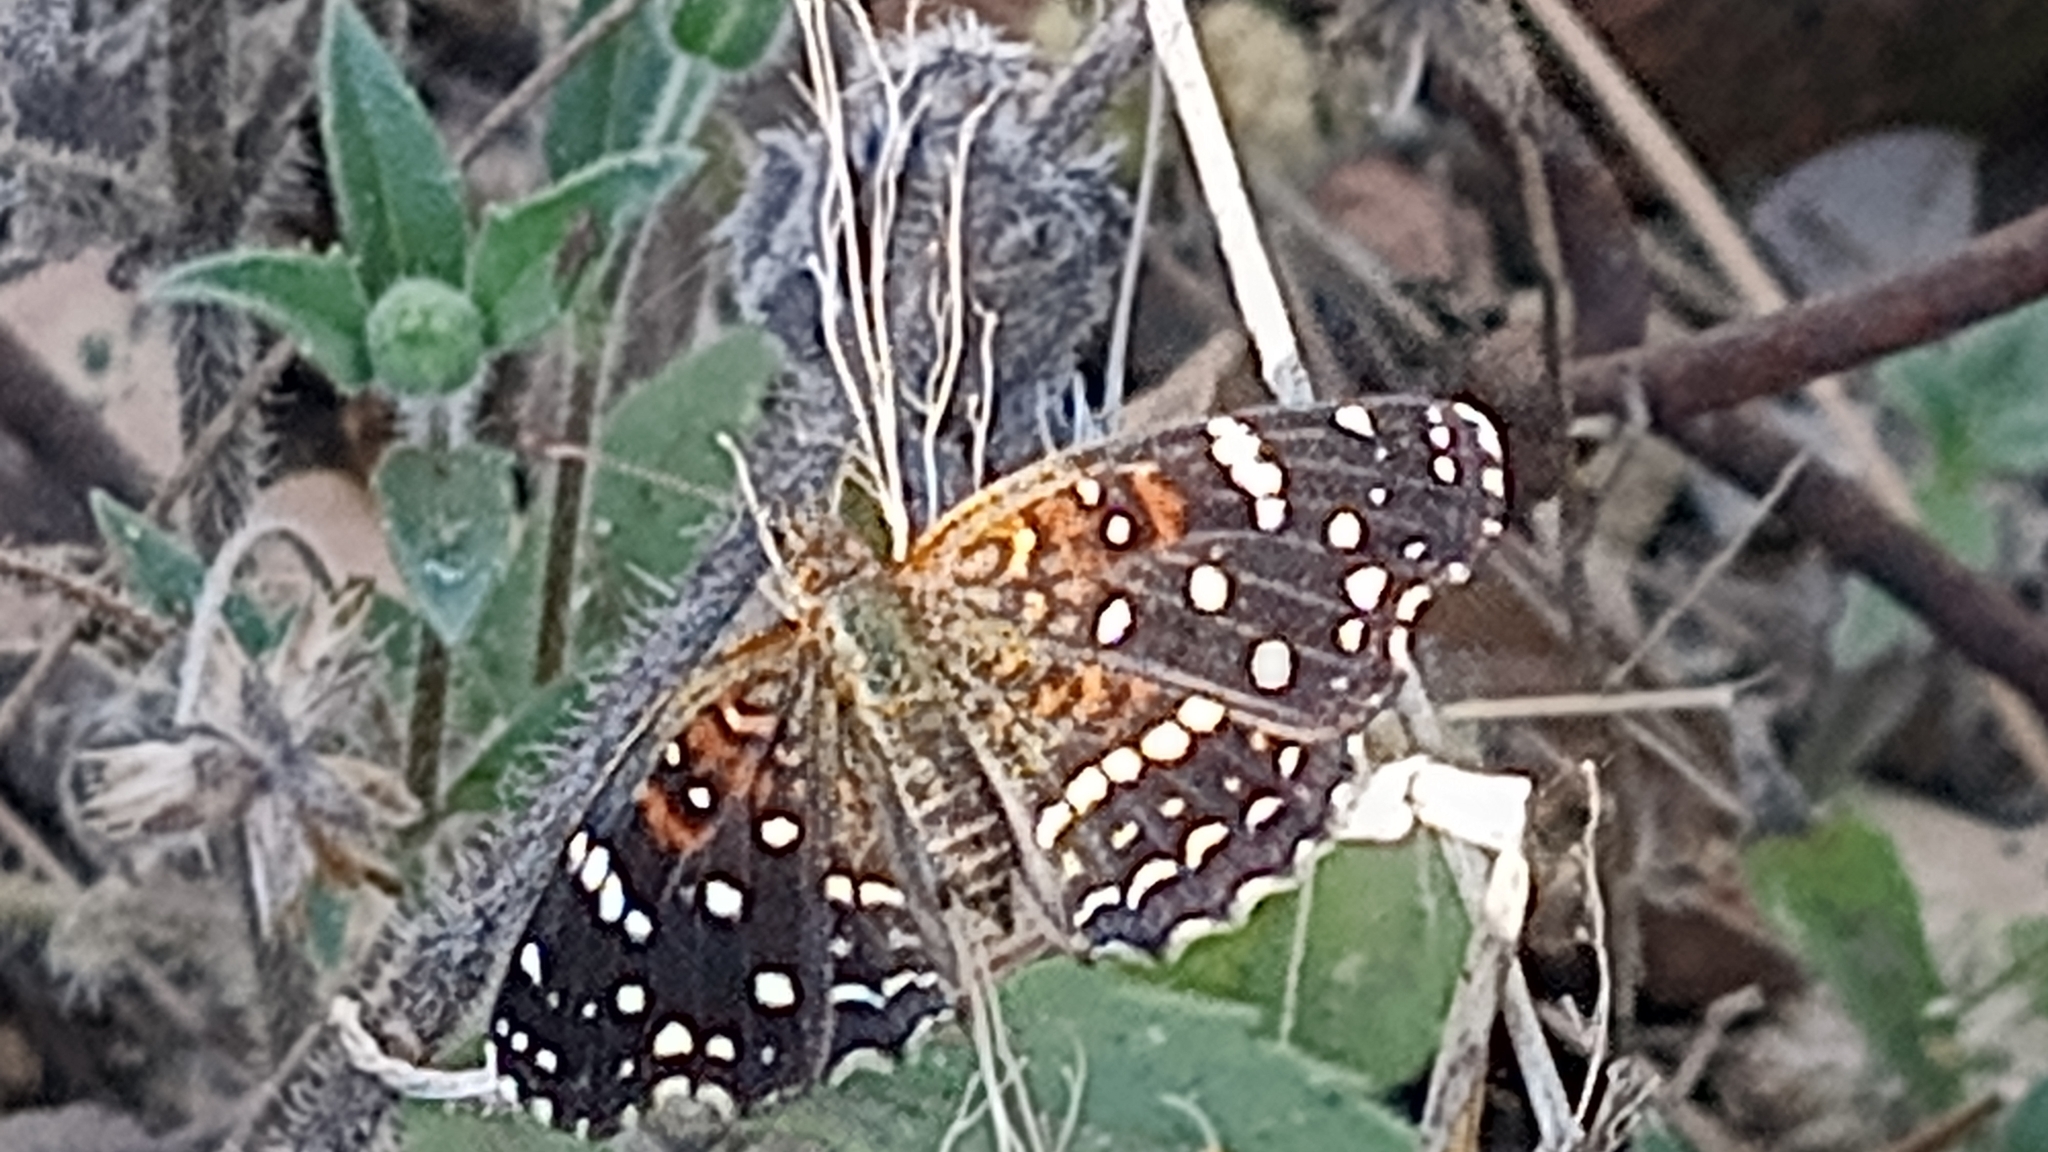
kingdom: Animalia
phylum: Arthropoda
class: Insecta
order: Lepidoptera
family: Nymphalidae
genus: Anthanassa
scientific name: Anthanassa texana
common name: Texan crescent
